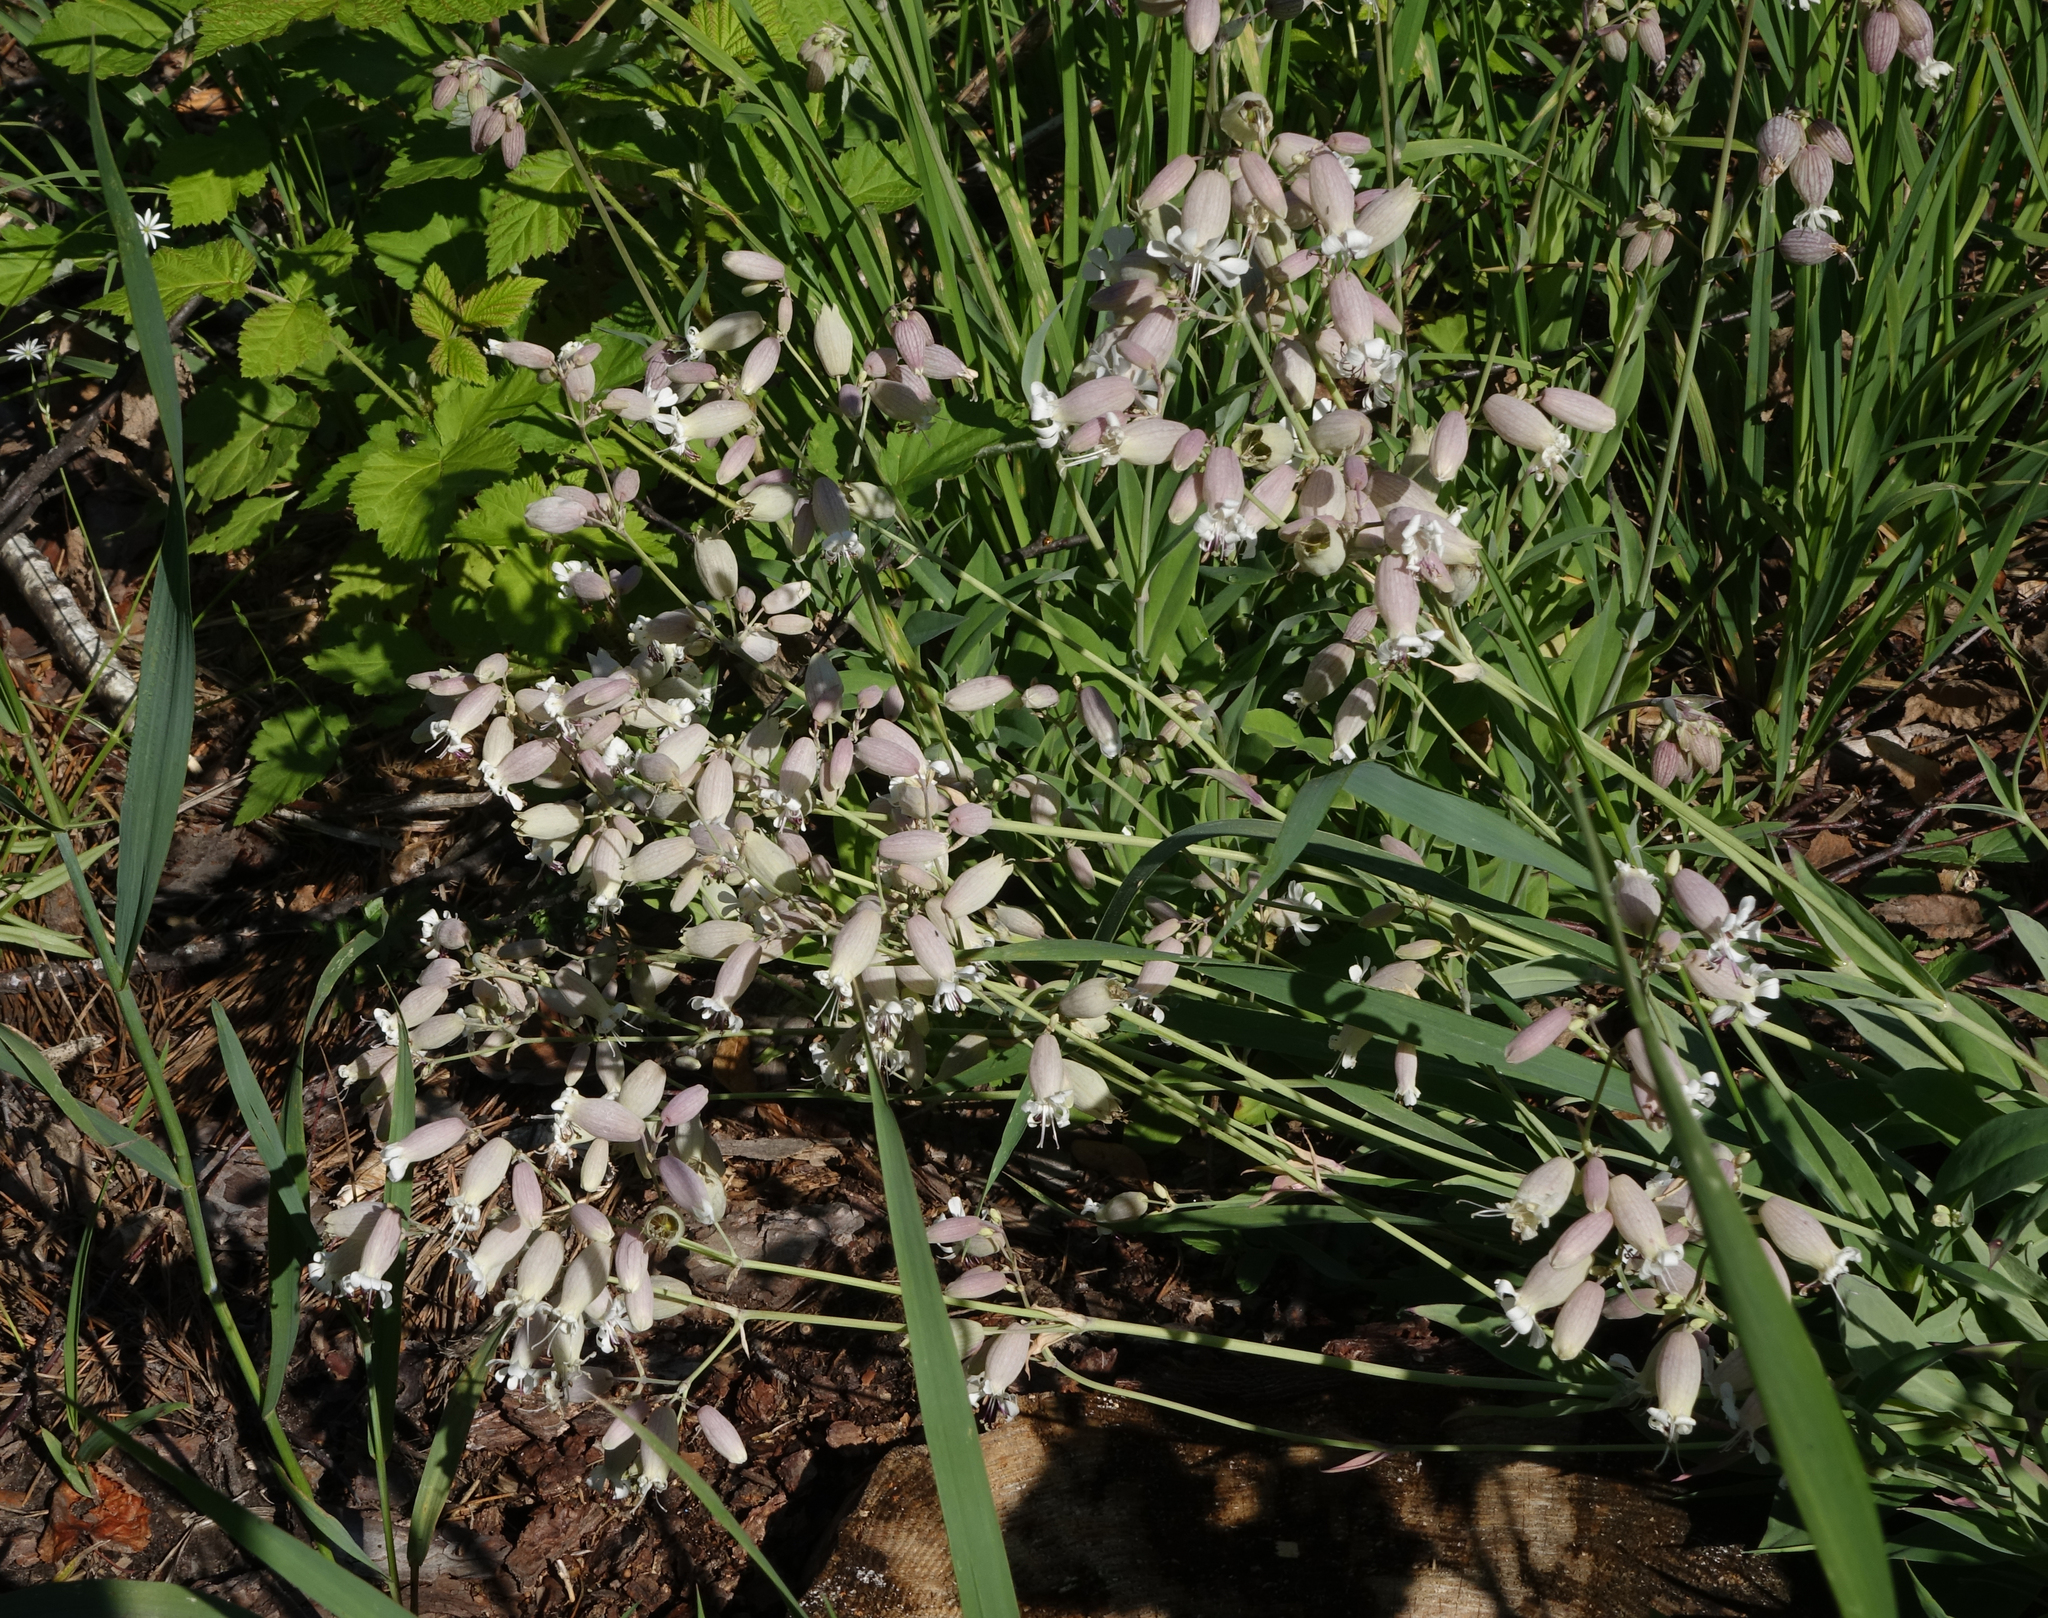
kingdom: Plantae
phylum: Tracheophyta
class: Magnoliopsida
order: Caryophyllales
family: Caryophyllaceae
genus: Silene
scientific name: Silene vulgaris
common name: Bladder campion
